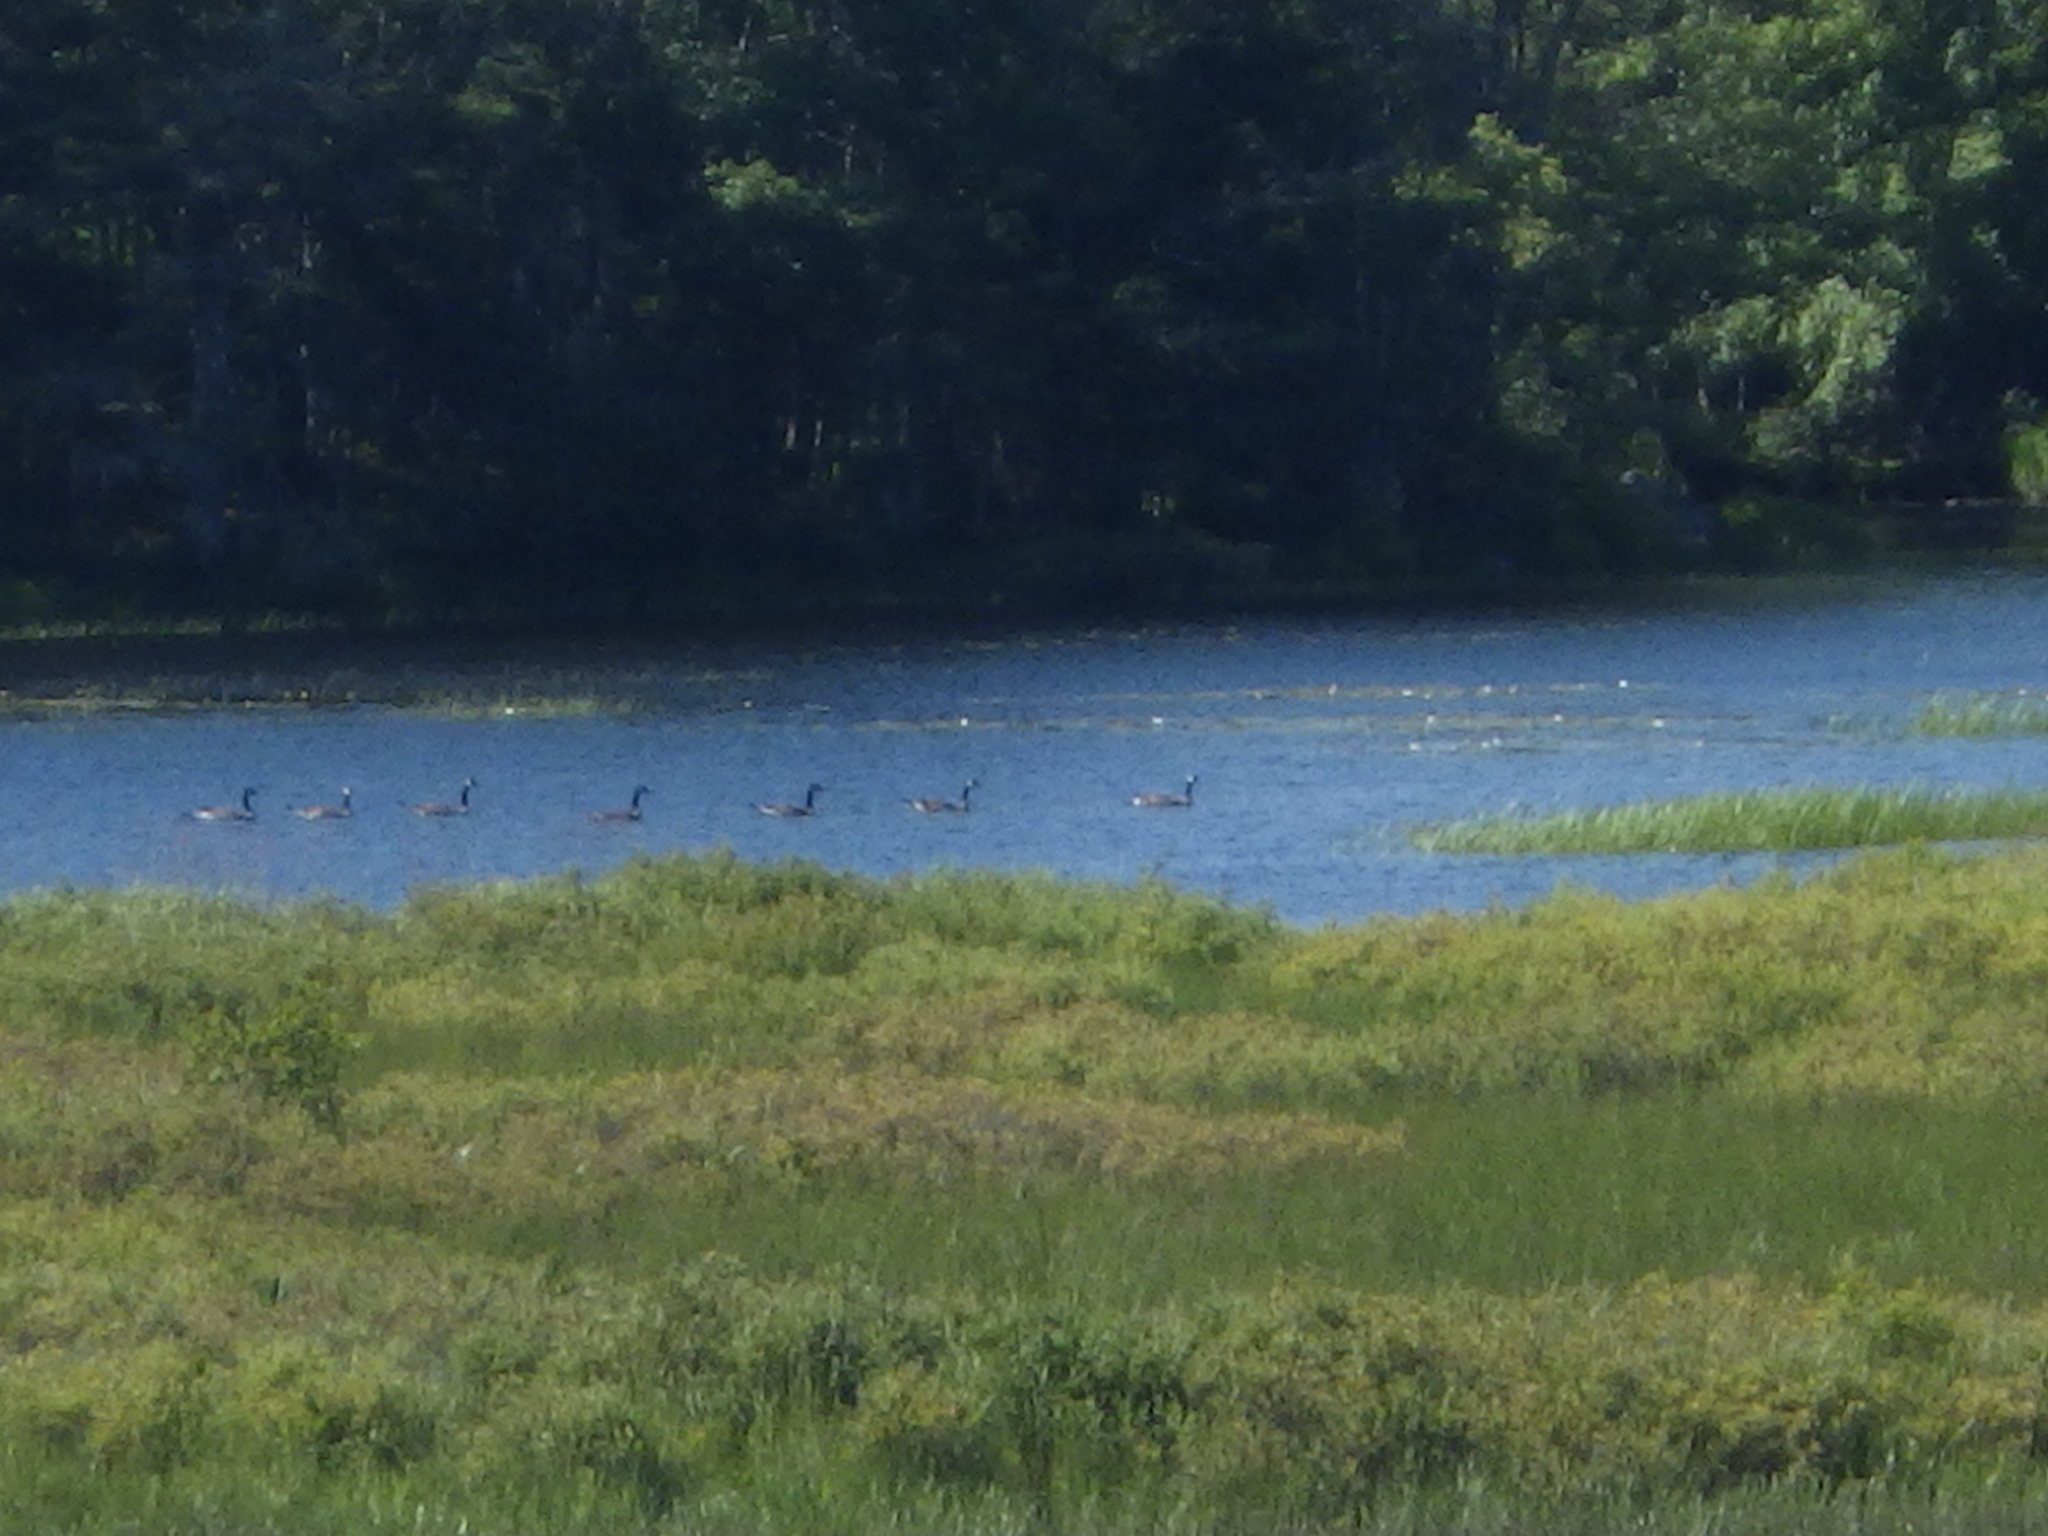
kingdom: Animalia
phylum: Chordata
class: Aves
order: Anseriformes
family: Anatidae
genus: Branta
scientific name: Branta canadensis
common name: Canada goose
